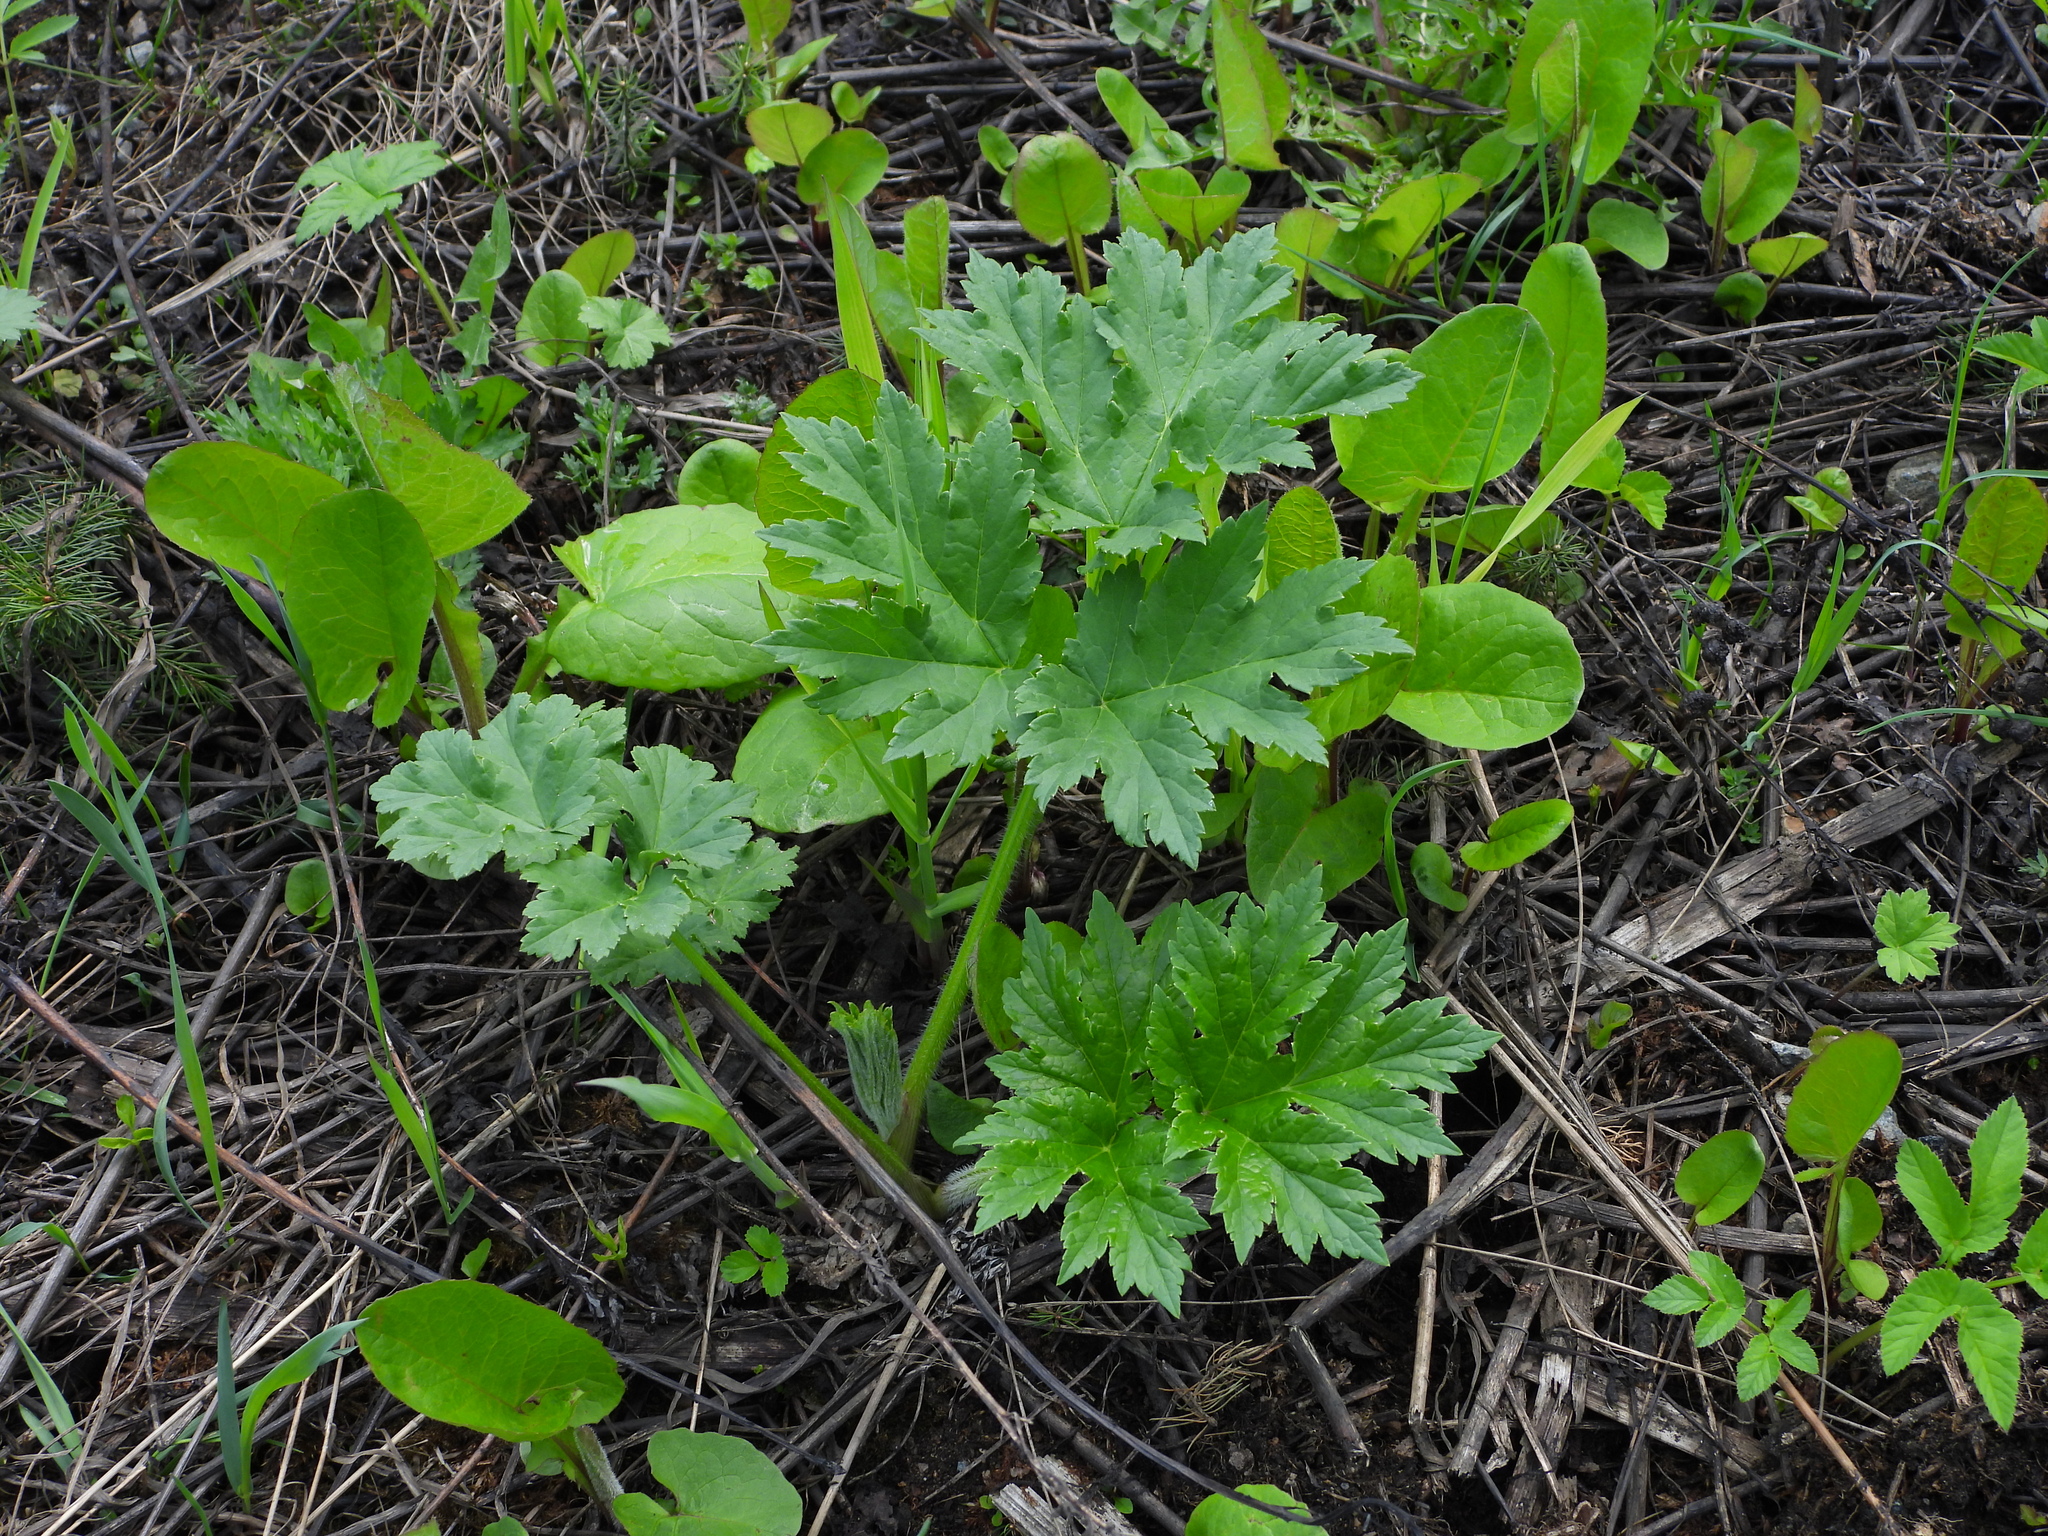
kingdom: Plantae
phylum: Tracheophyta
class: Magnoliopsida
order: Apiales
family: Apiaceae
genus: Heracleum
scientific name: Heracleum sosnowskyi
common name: Sosnowsky's hogweed
